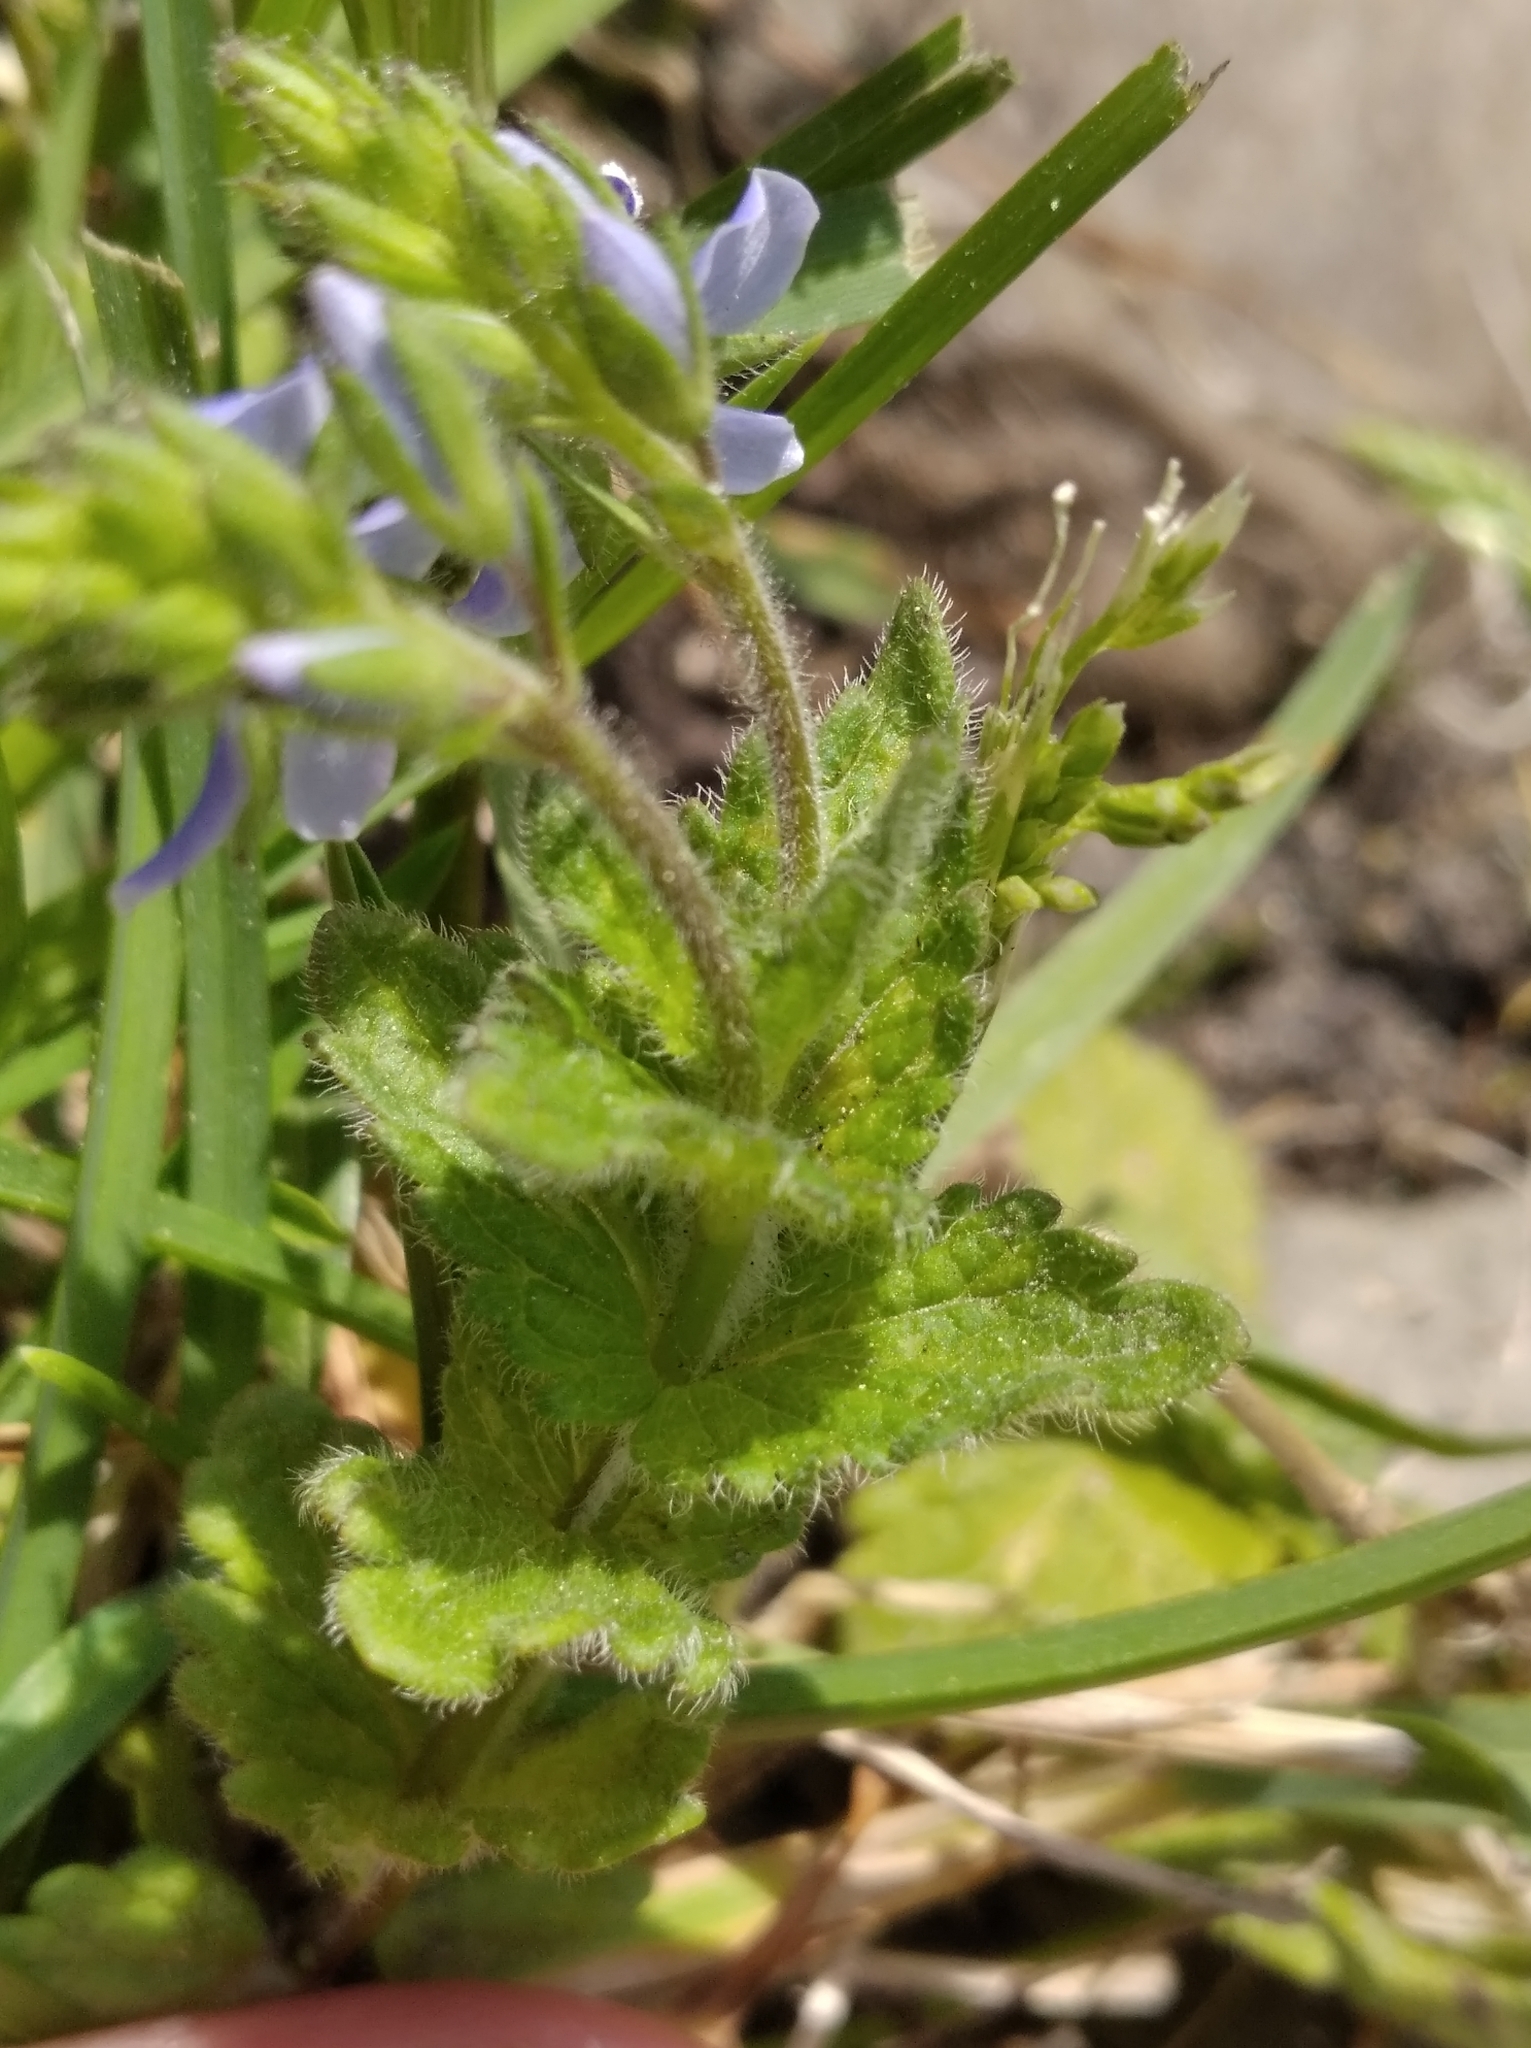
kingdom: Plantae
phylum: Tracheophyta
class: Magnoliopsida
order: Lamiales
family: Plantaginaceae
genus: Veronica
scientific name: Veronica chamaedrys
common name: Germander speedwell
